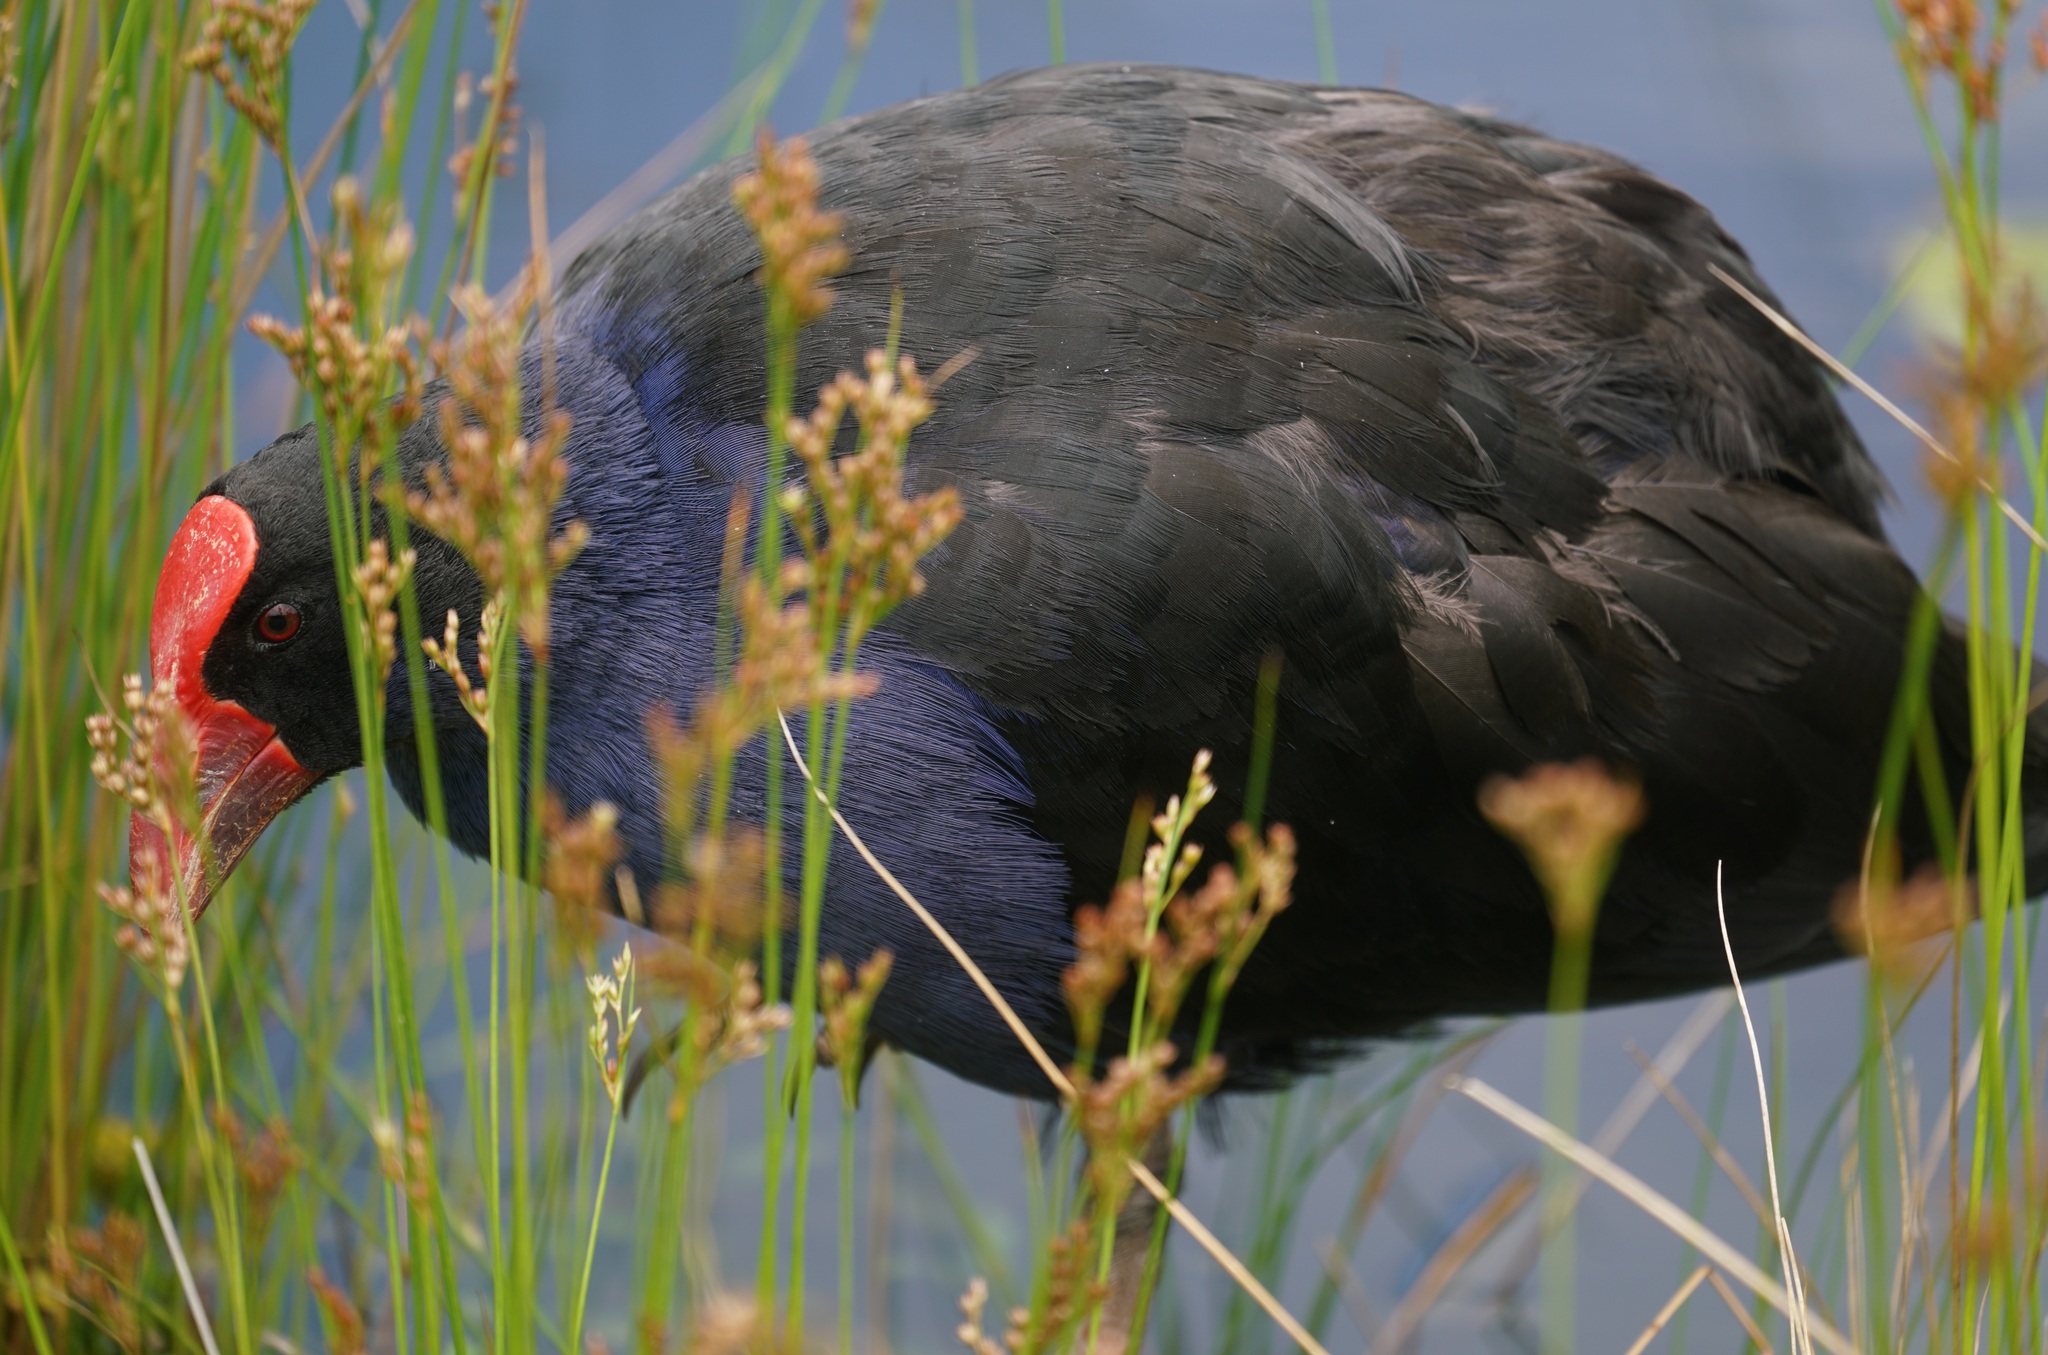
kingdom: Animalia
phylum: Chordata
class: Aves
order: Gruiformes
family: Rallidae
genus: Porphyrio
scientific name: Porphyrio melanotus
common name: Australasian swamphen
